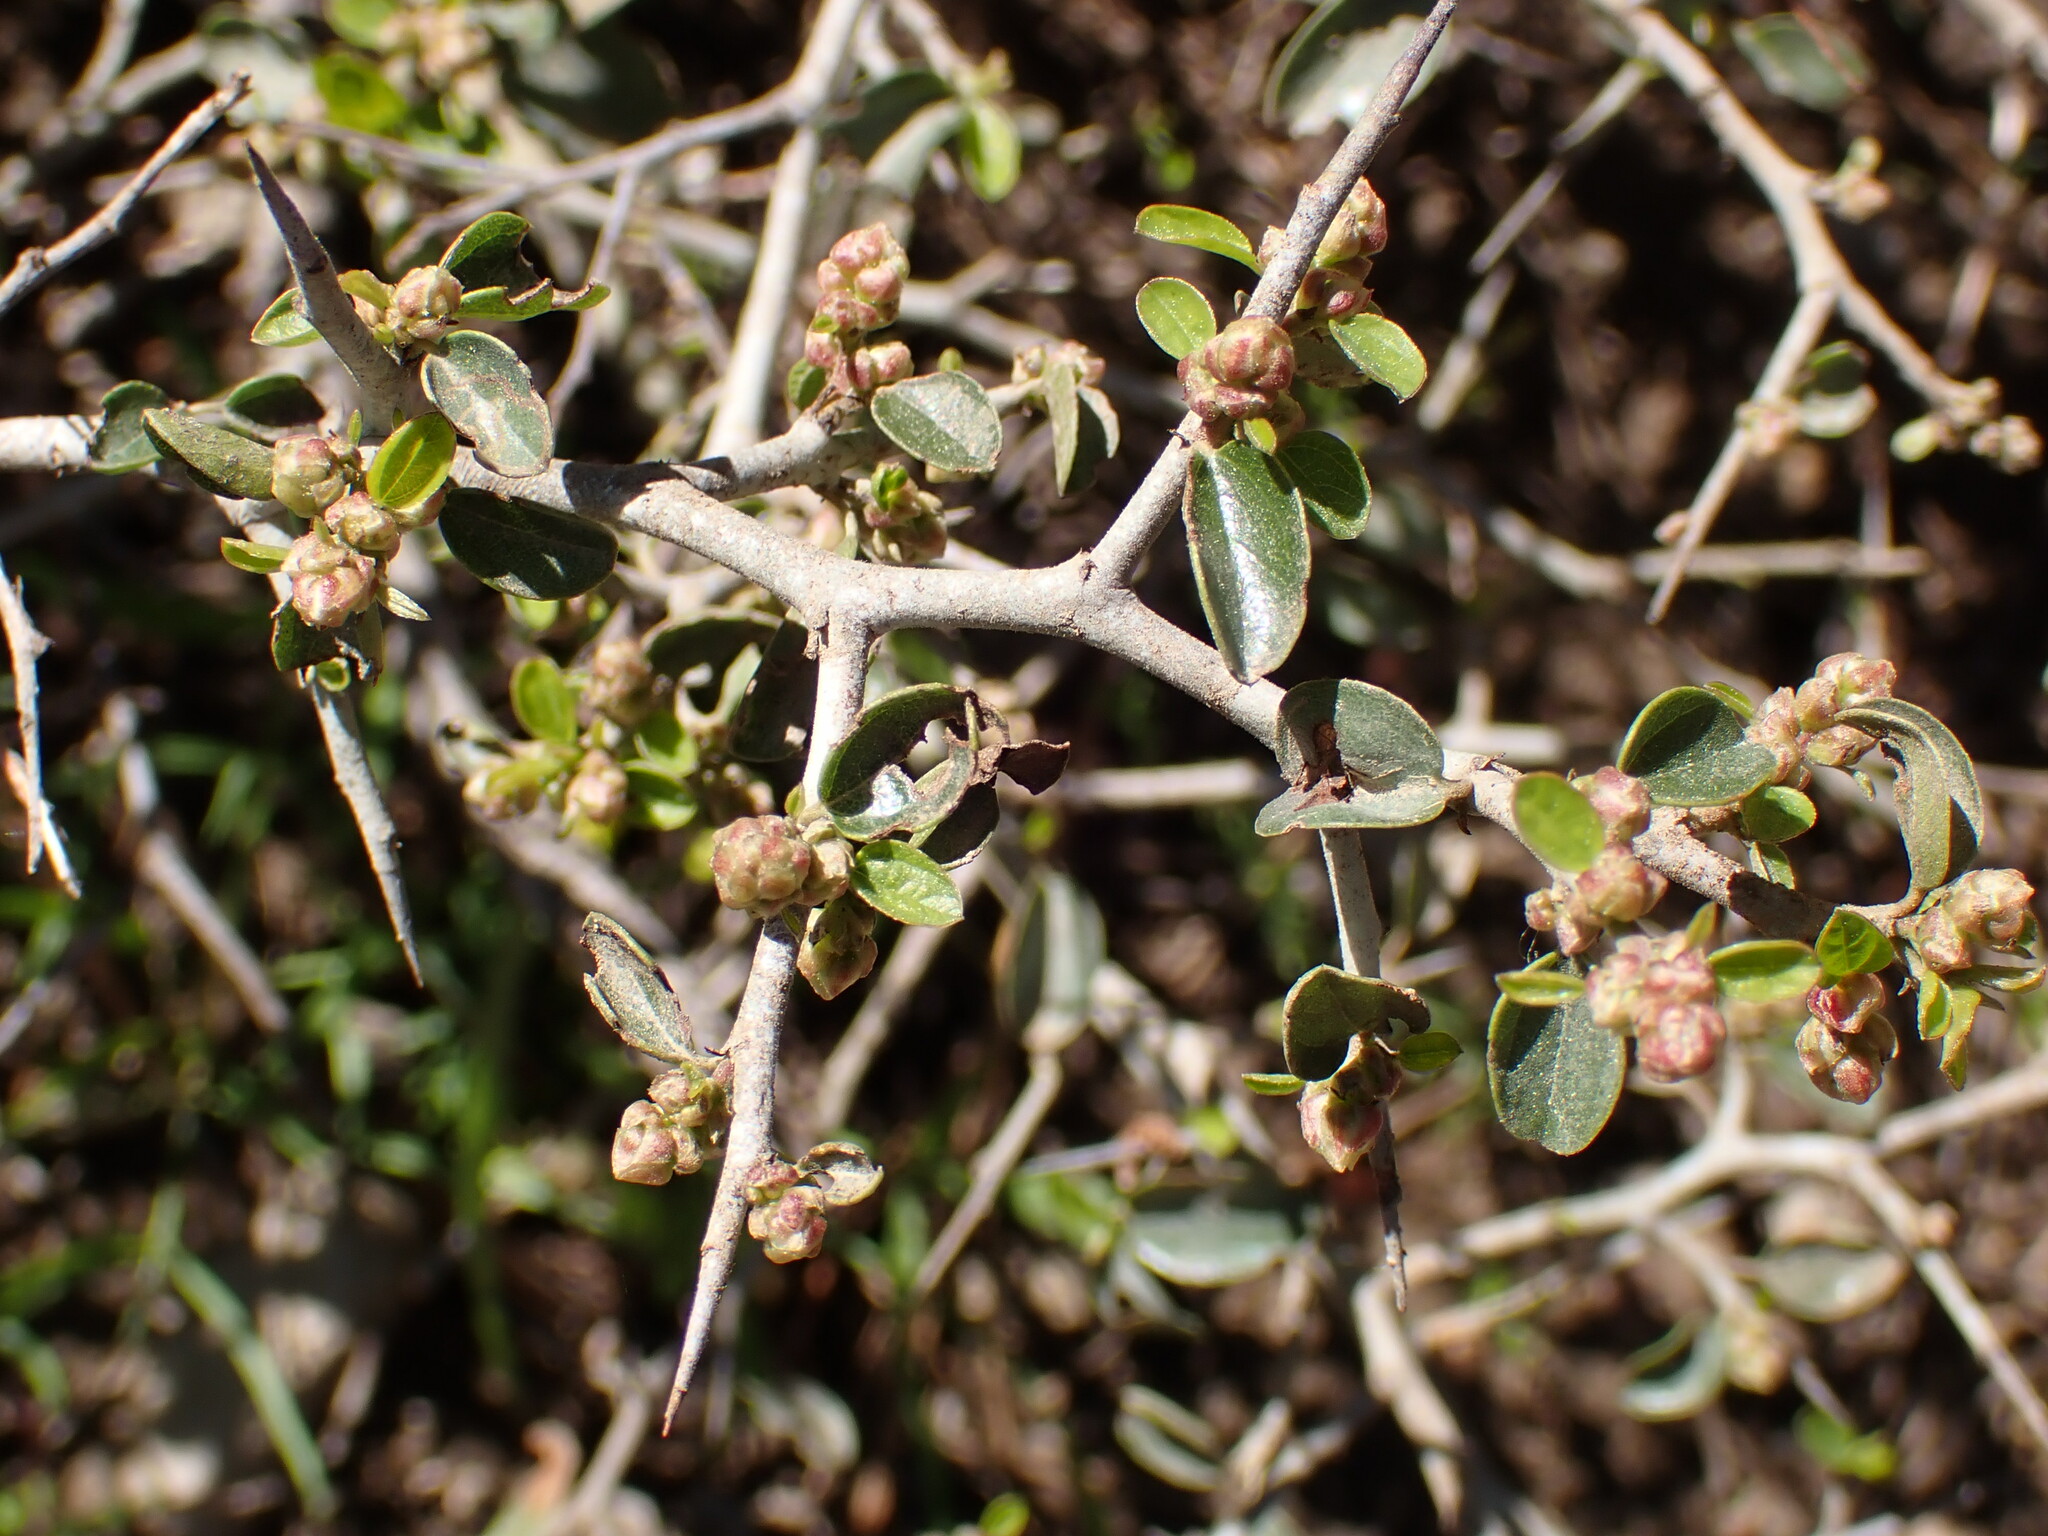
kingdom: Plantae
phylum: Tracheophyta
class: Magnoliopsida
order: Rosales
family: Rhamnaceae
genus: Ceanothus
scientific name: Ceanothus cordulatus
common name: Mountain whitethorn
